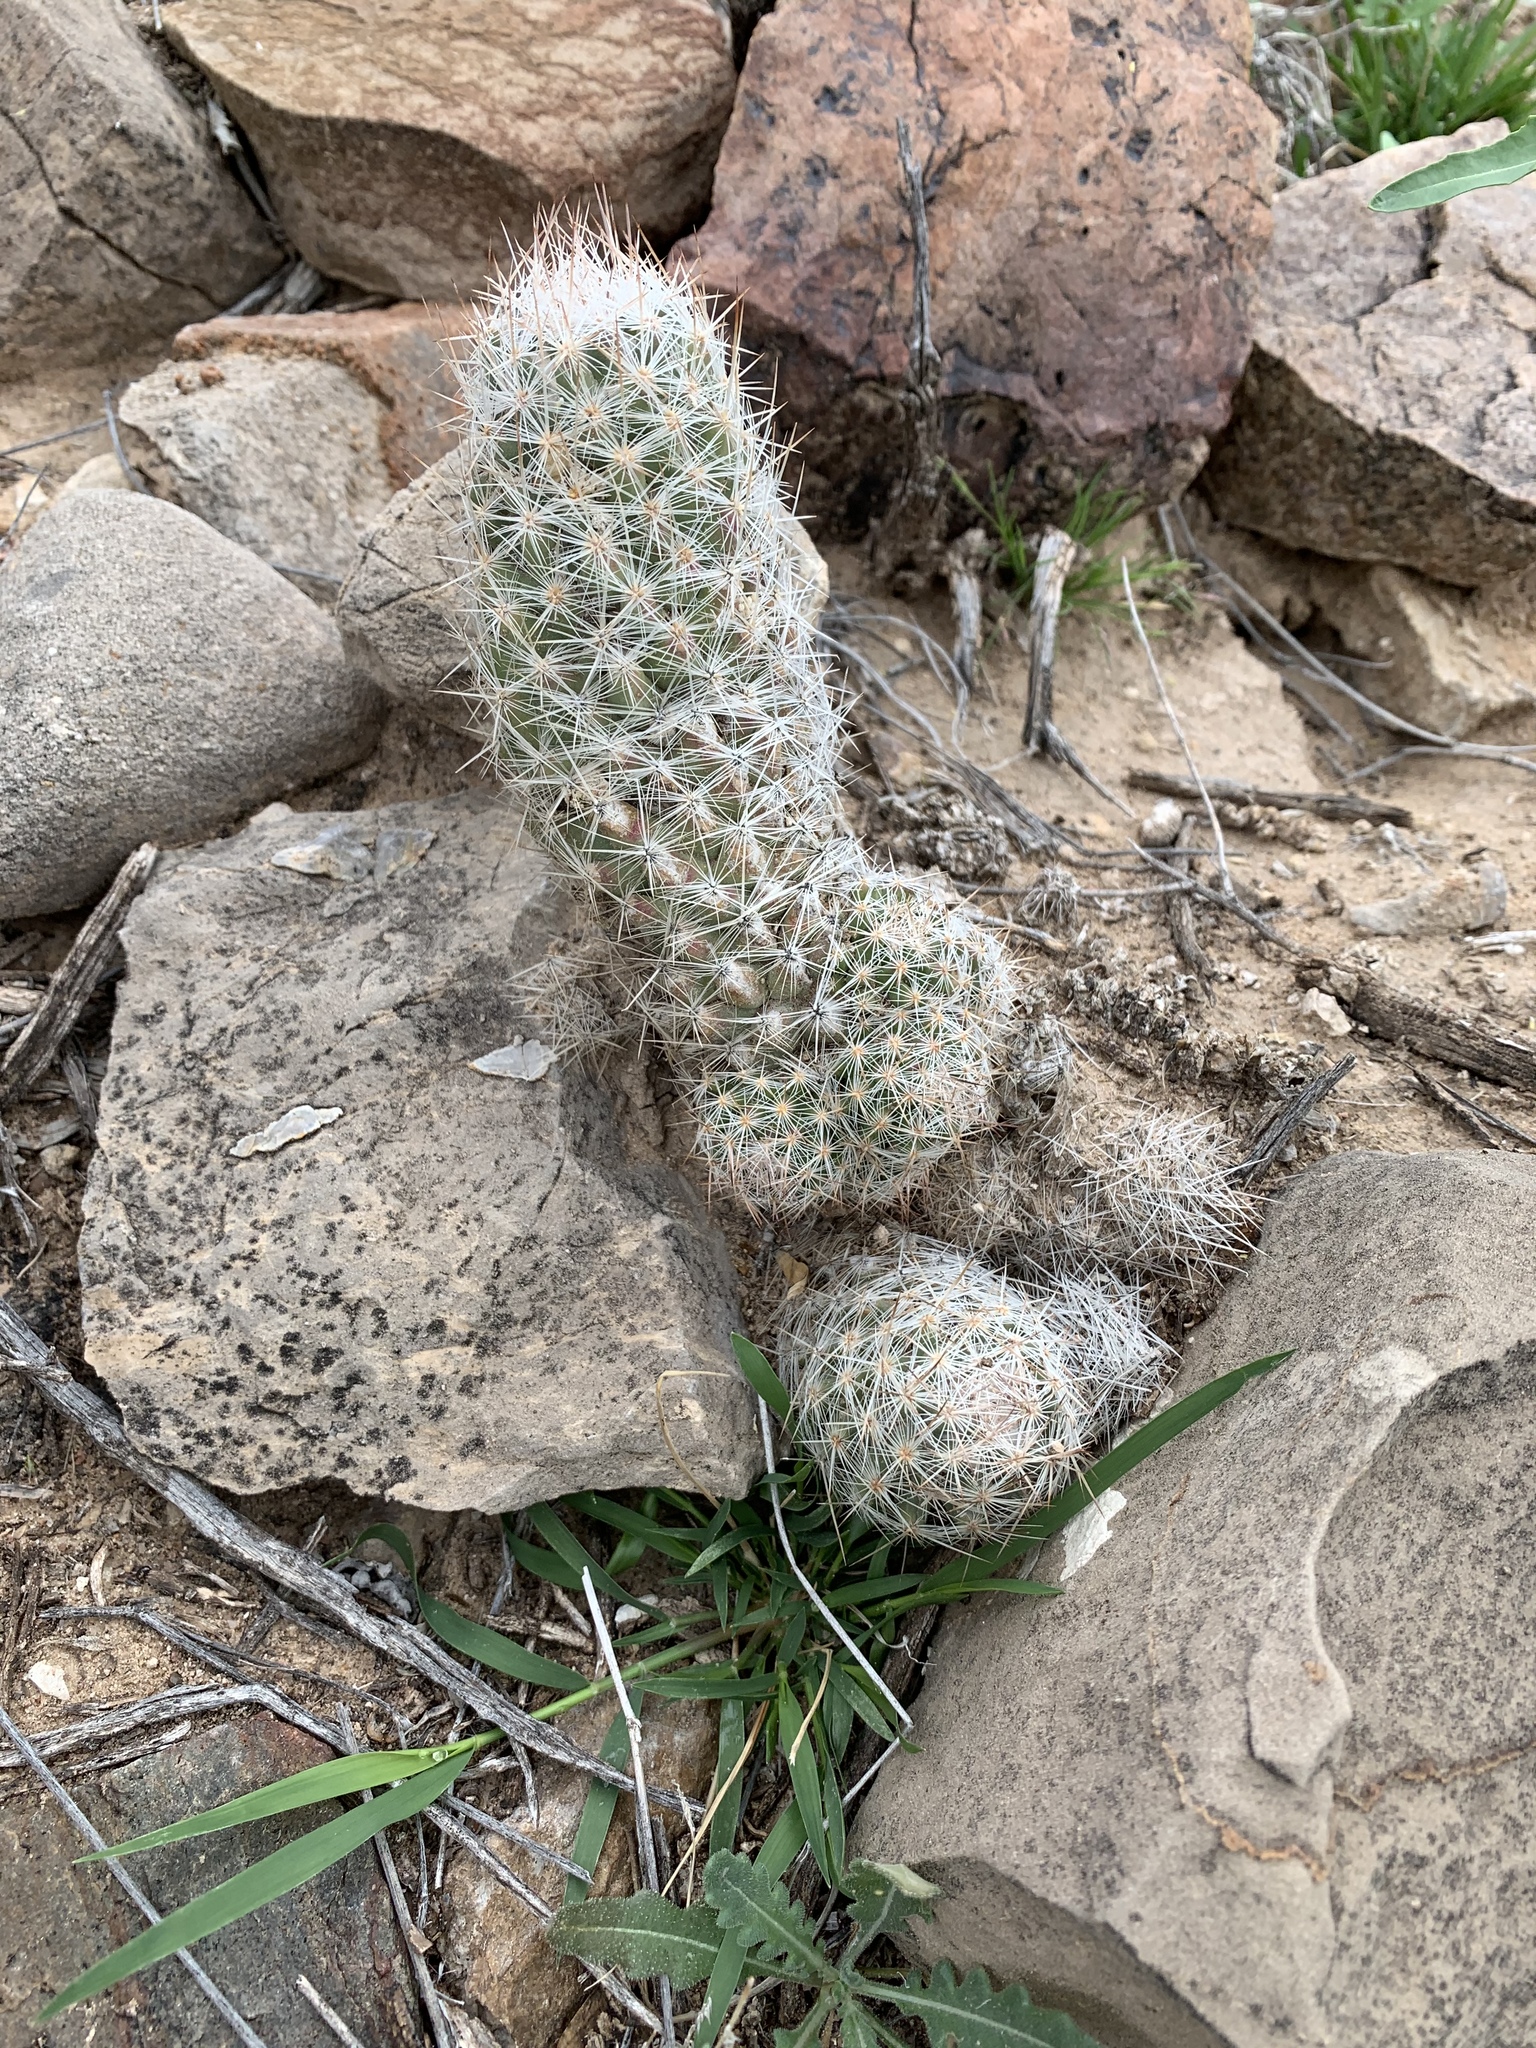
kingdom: Plantae
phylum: Tracheophyta
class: Magnoliopsida
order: Caryophyllales
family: Cactaceae
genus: Pelecyphora
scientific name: Pelecyphora tuberculosa
